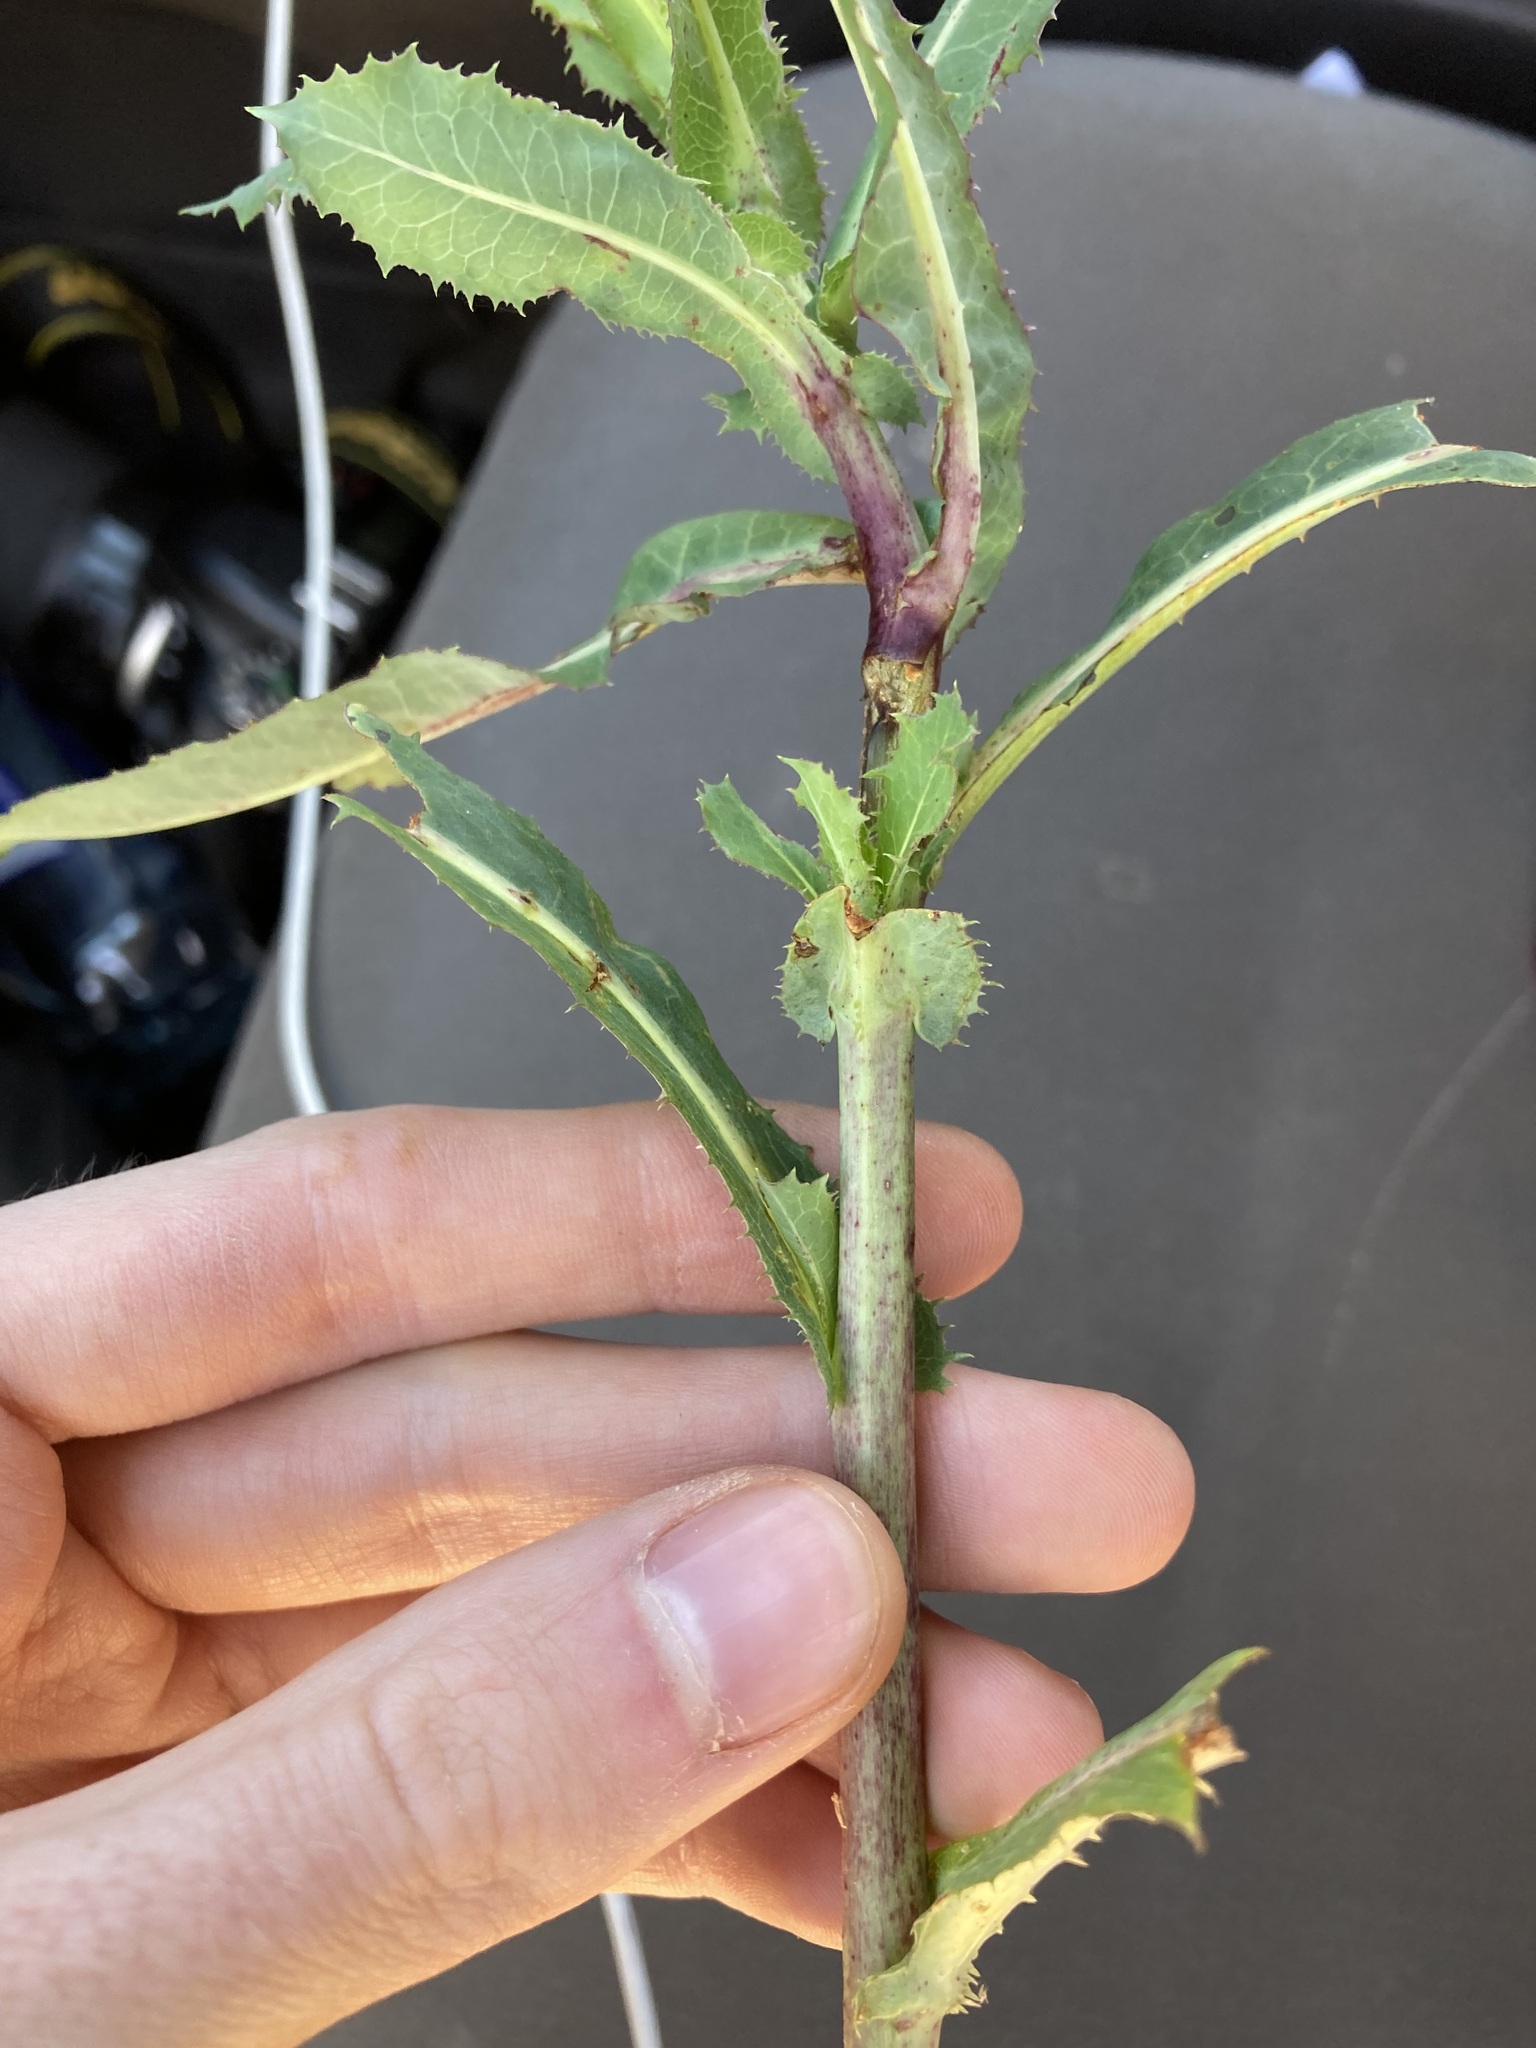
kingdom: Plantae
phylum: Tracheophyta
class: Magnoliopsida
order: Asterales
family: Asteraceae
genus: Lactuca
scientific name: Lactuca serriola
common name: Prickly lettuce
